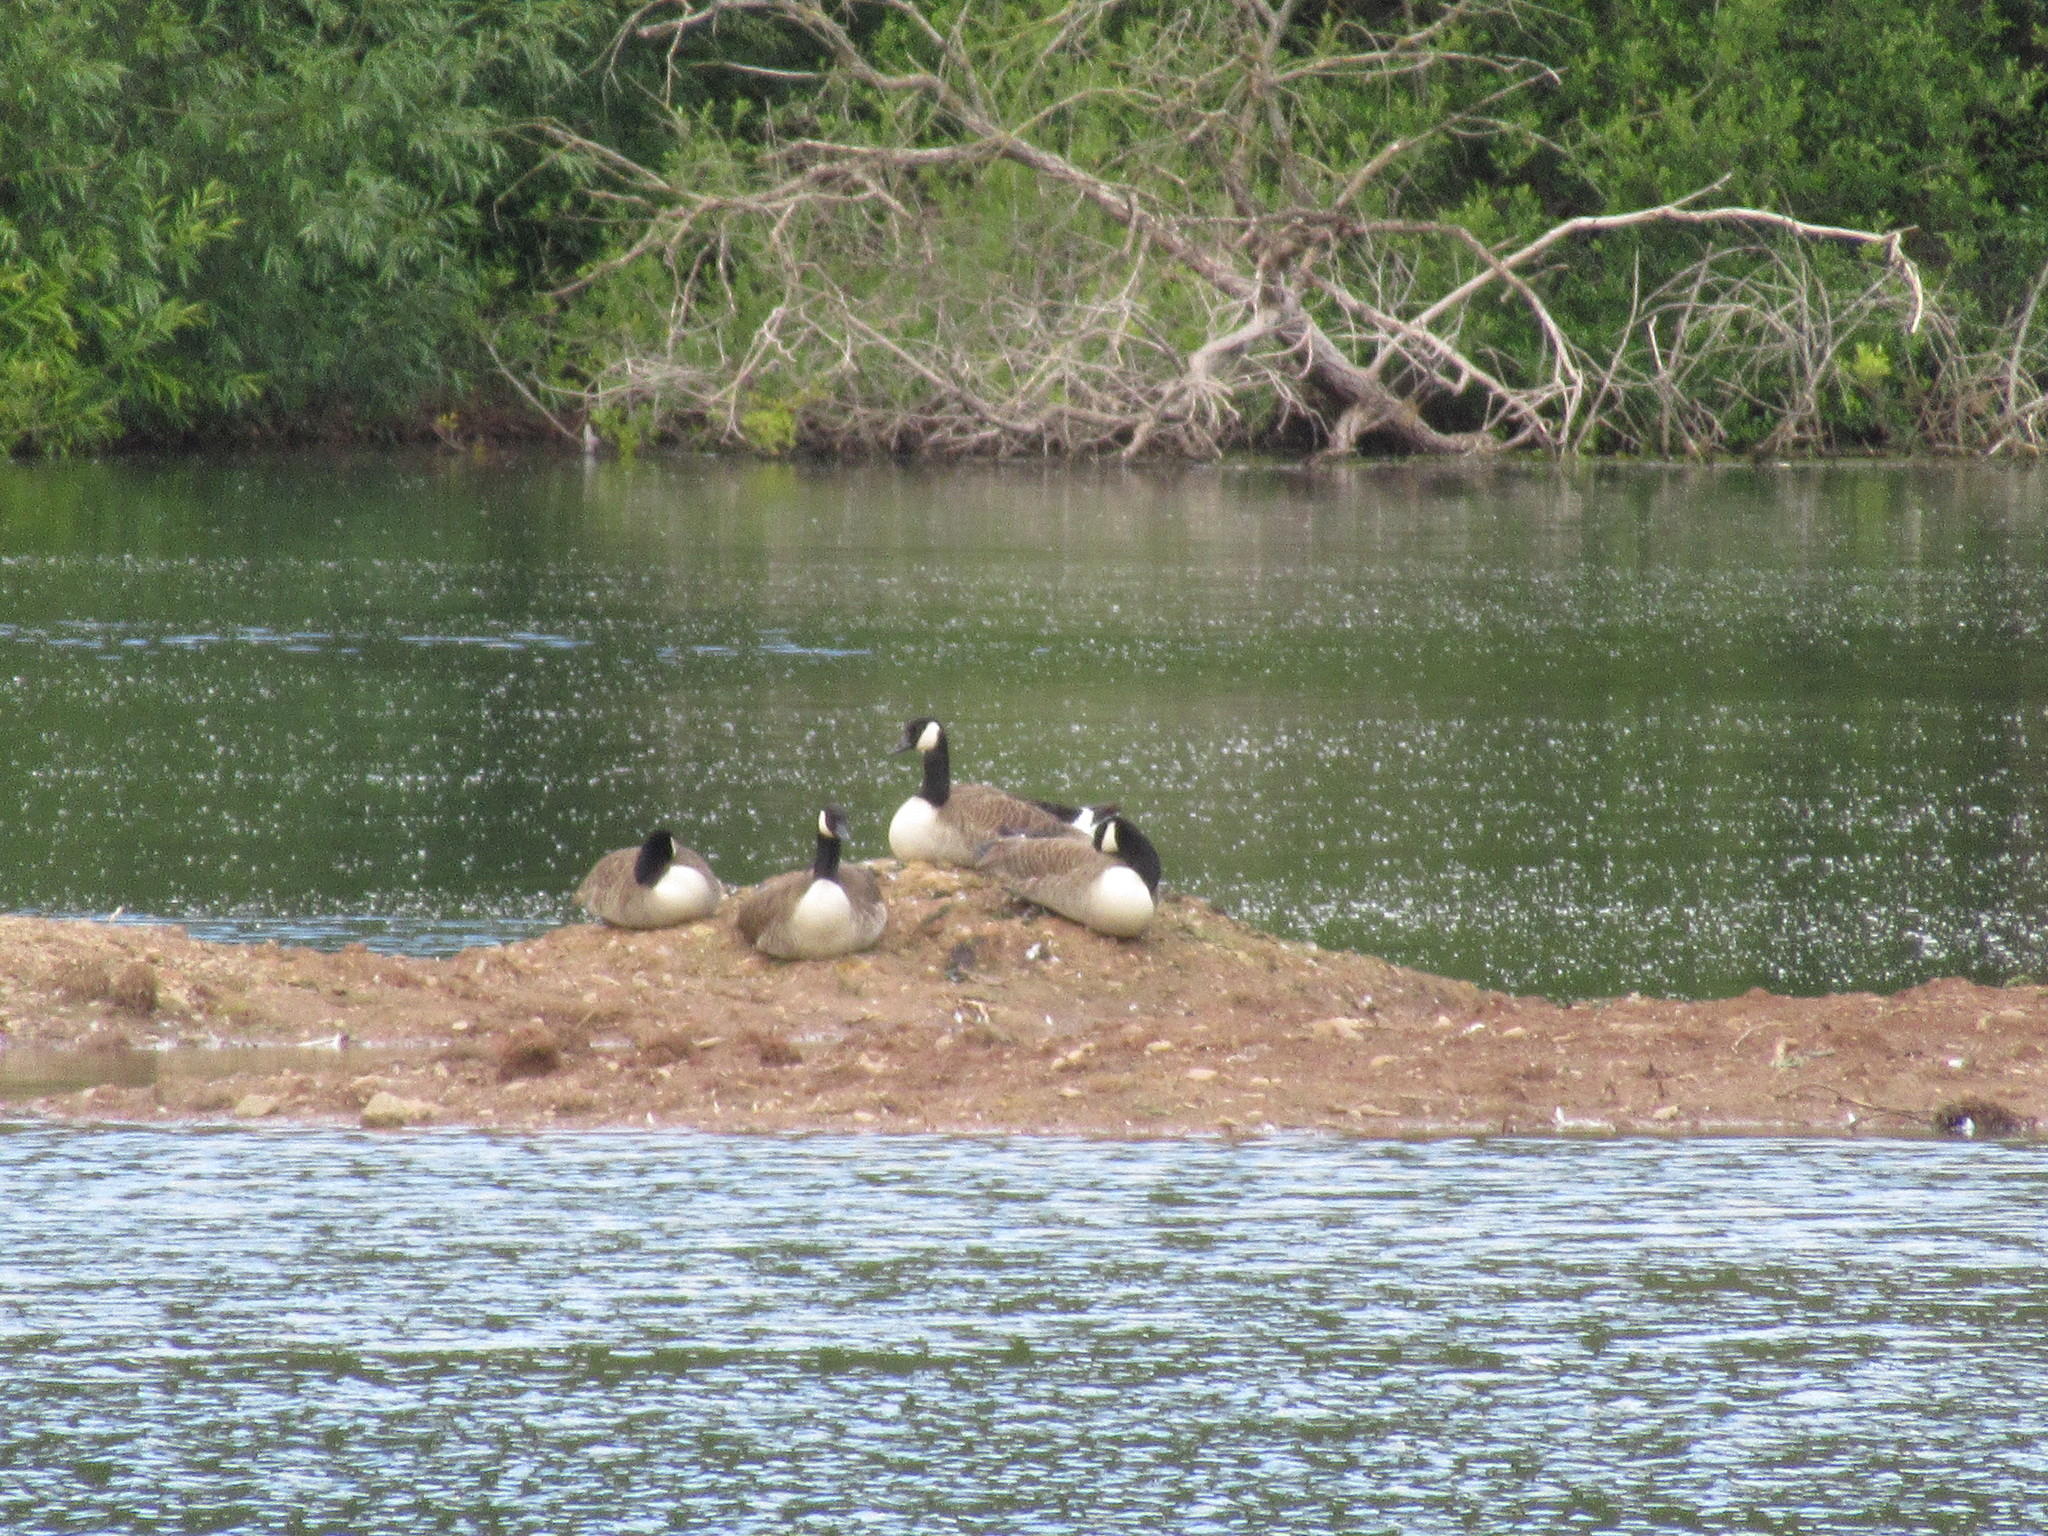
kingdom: Animalia
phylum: Chordata
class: Aves
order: Anseriformes
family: Anatidae
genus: Branta
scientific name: Branta canadensis
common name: Canada goose
